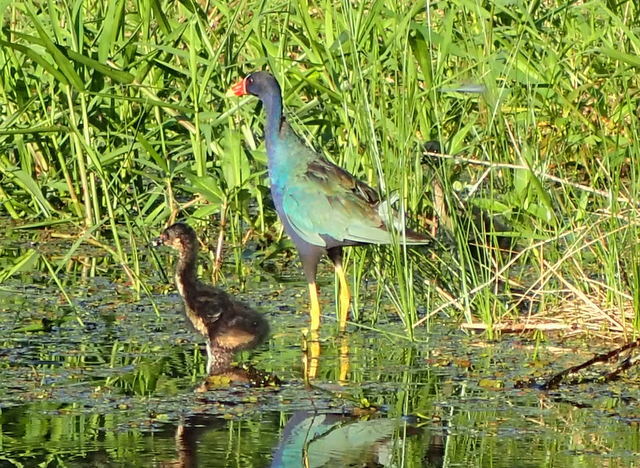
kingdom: Animalia
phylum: Chordata
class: Aves
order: Gruiformes
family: Rallidae
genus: Porphyrio
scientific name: Porphyrio martinica
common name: Purple gallinule
